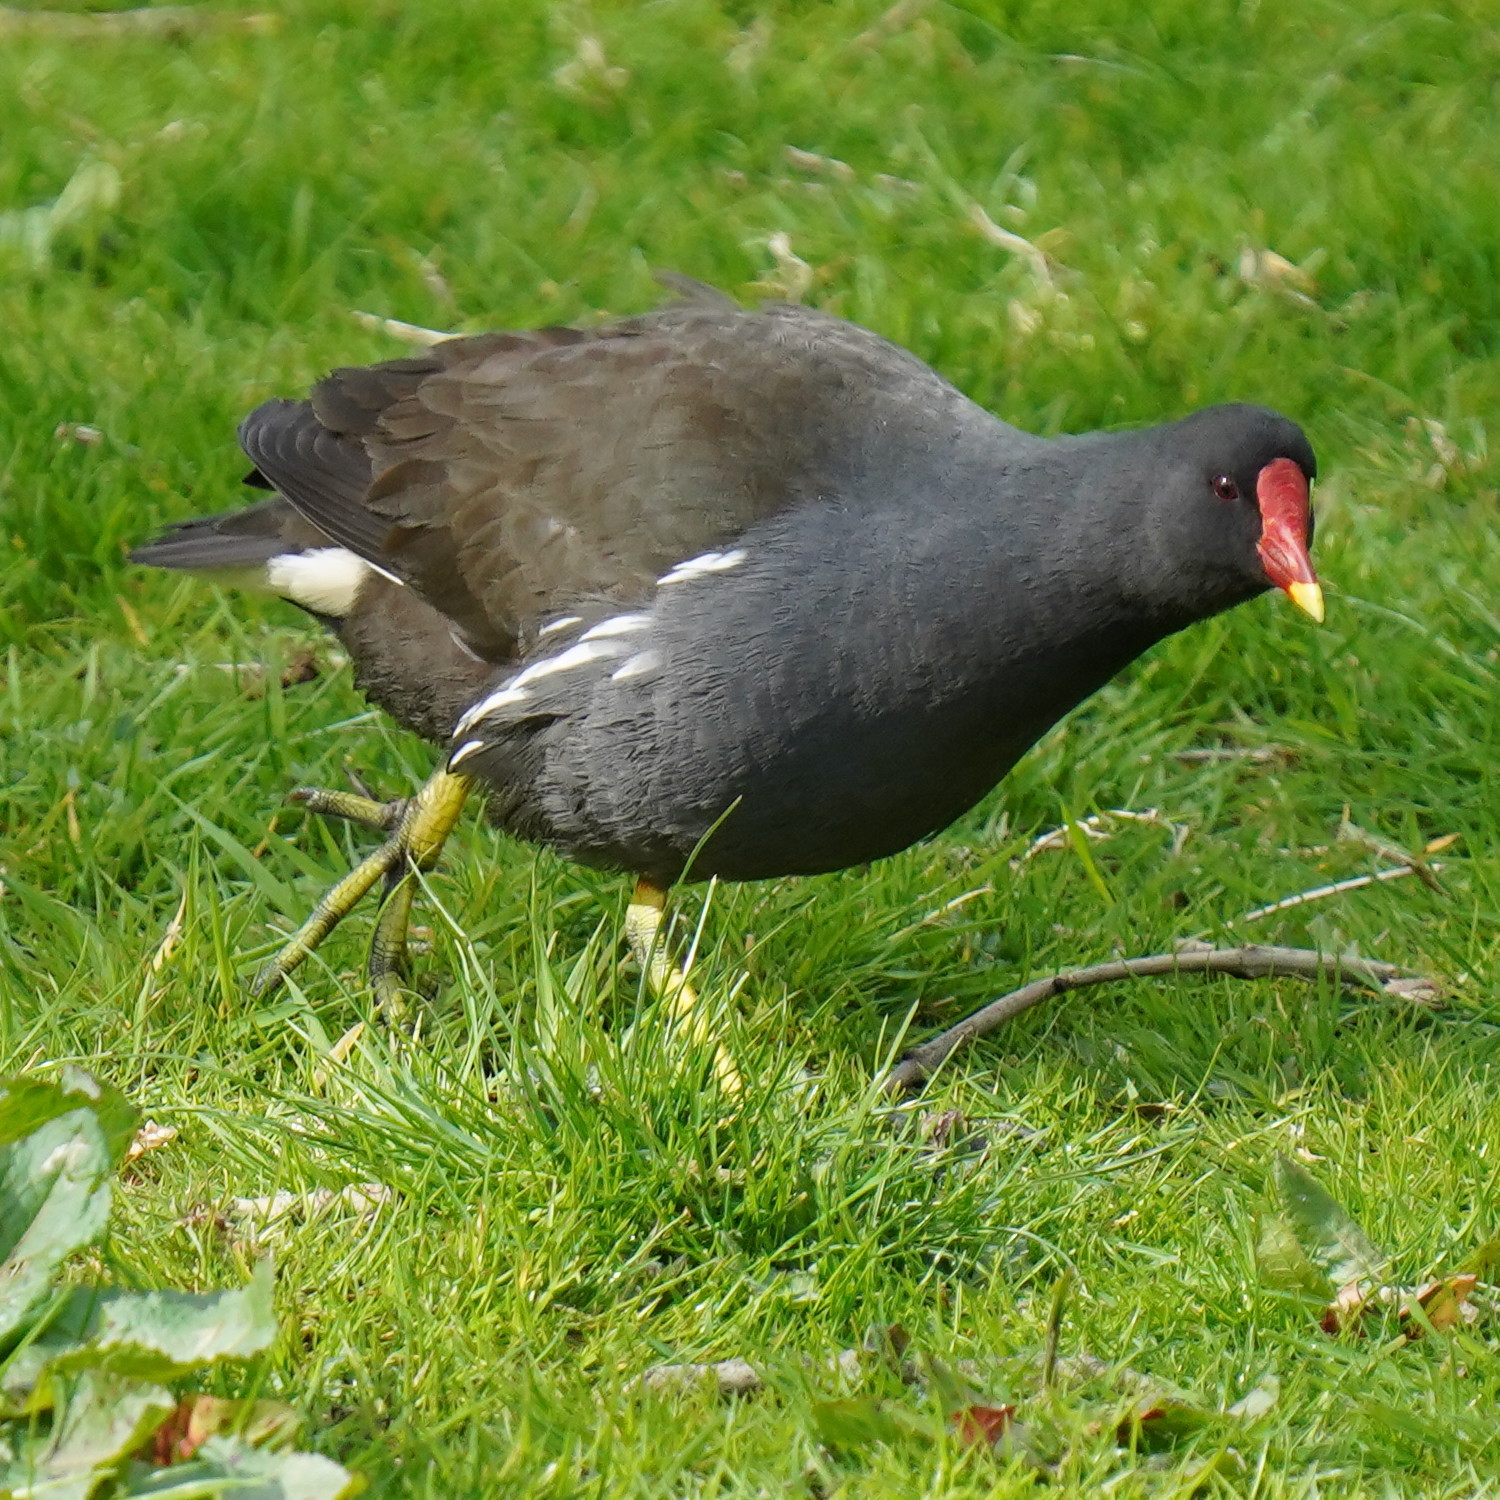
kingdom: Animalia
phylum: Chordata
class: Aves
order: Gruiformes
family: Rallidae
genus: Gallinula
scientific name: Gallinula chloropus
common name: Common moorhen
